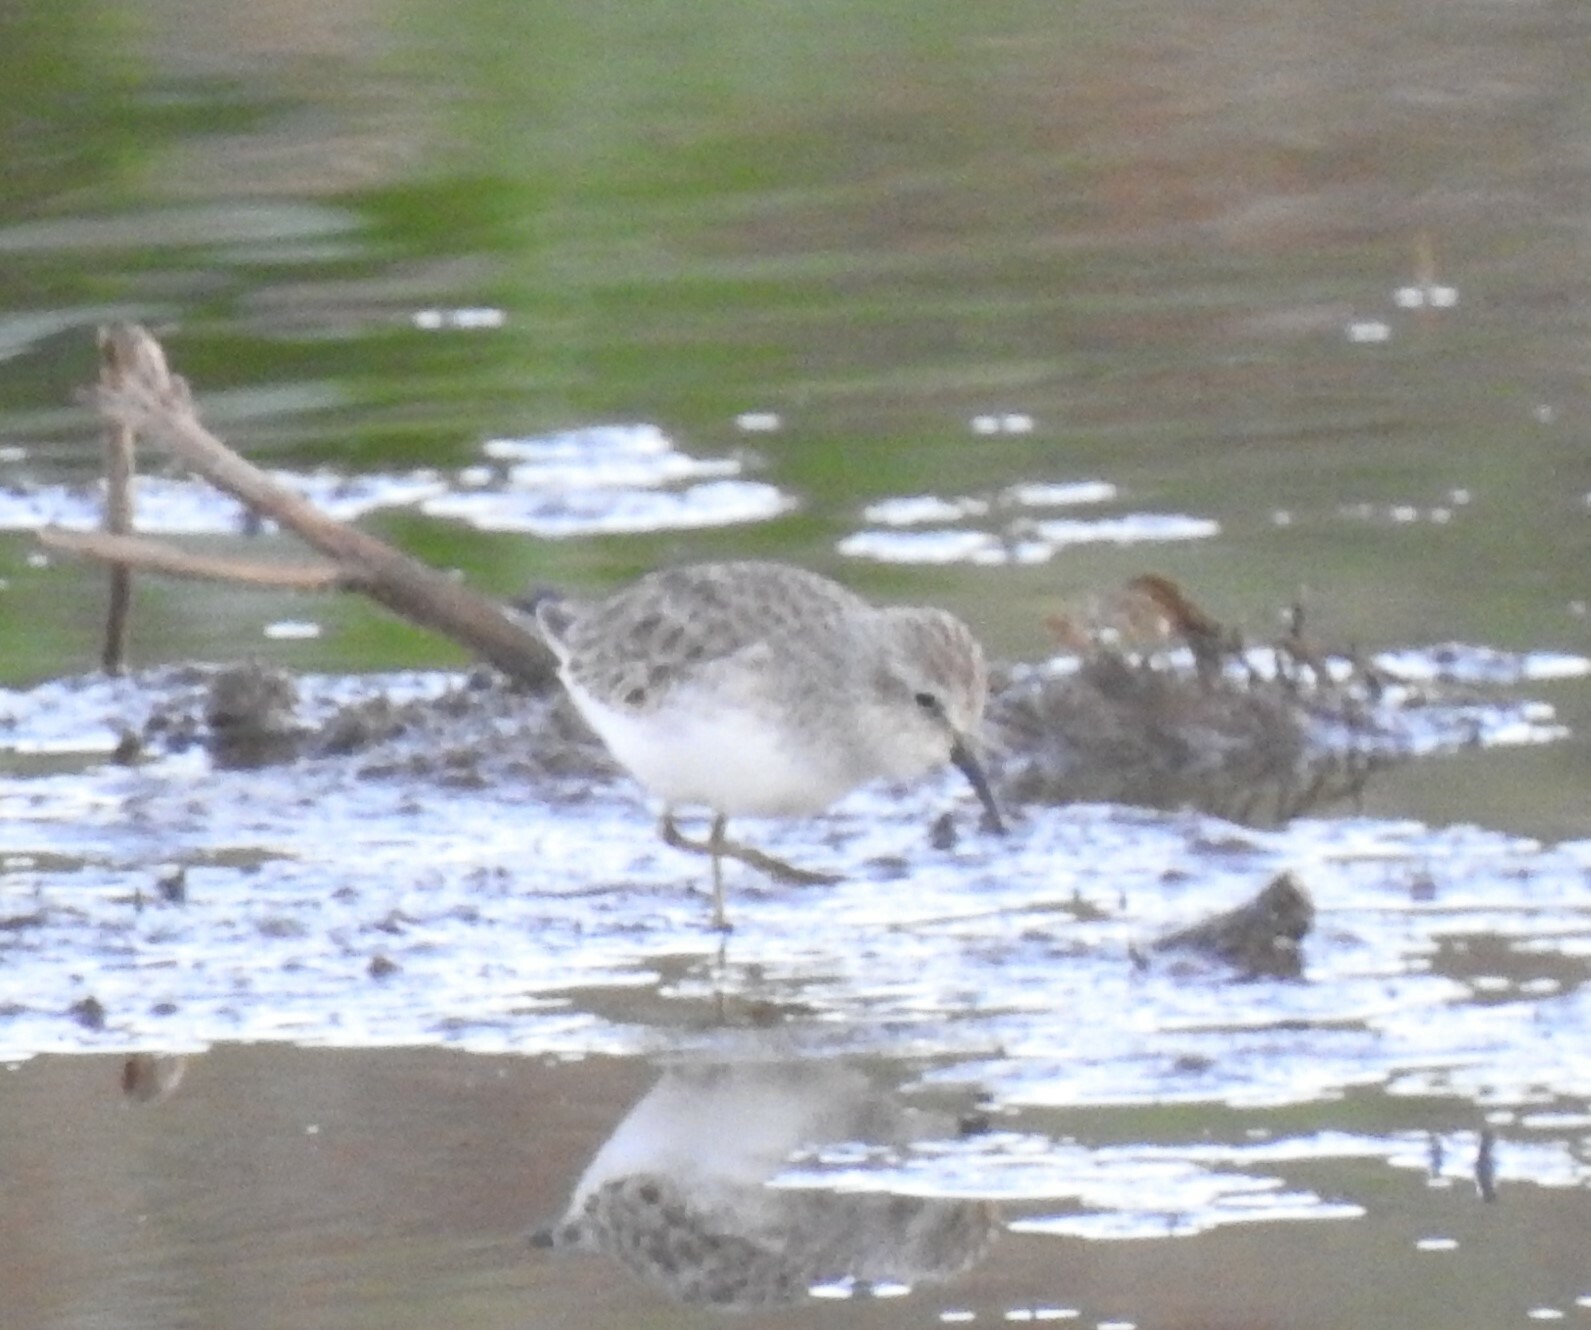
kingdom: Animalia
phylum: Chordata
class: Aves
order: Charadriiformes
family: Scolopacidae
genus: Calidris
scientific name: Calidris minutilla
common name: Least sandpiper
